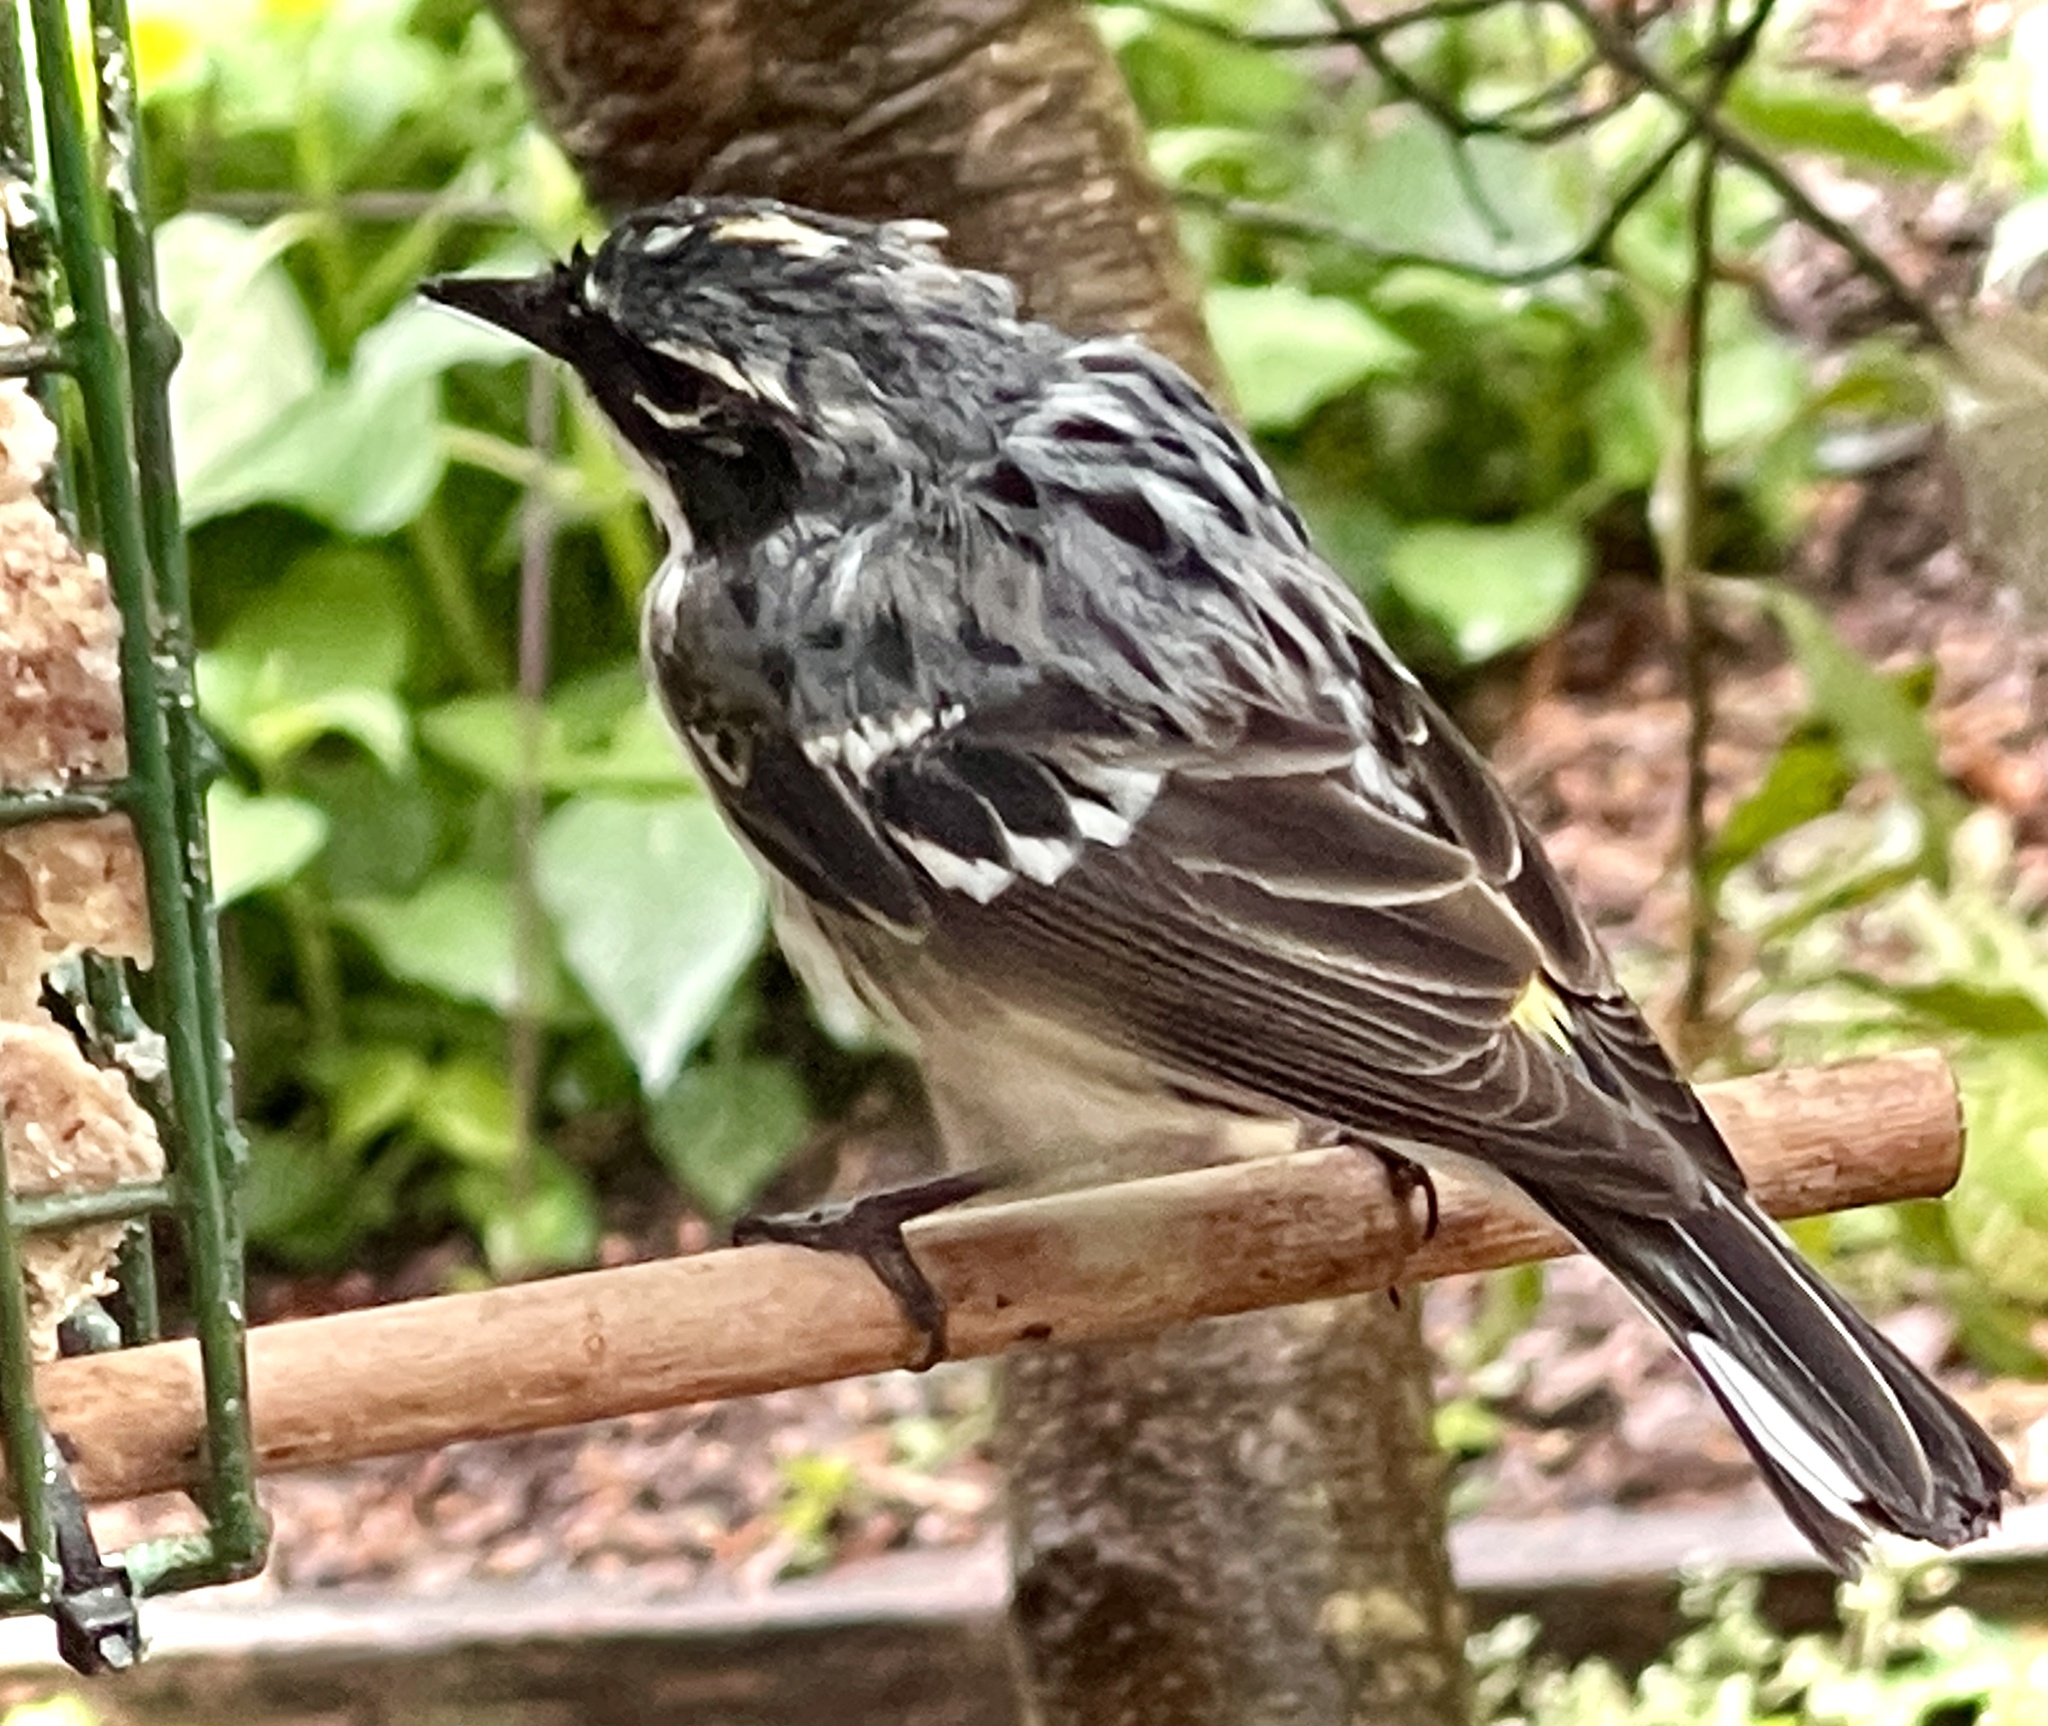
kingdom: Animalia
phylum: Chordata
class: Aves
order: Passeriformes
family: Parulidae
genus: Setophaga
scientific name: Setophaga coronata
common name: Myrtle warbler
